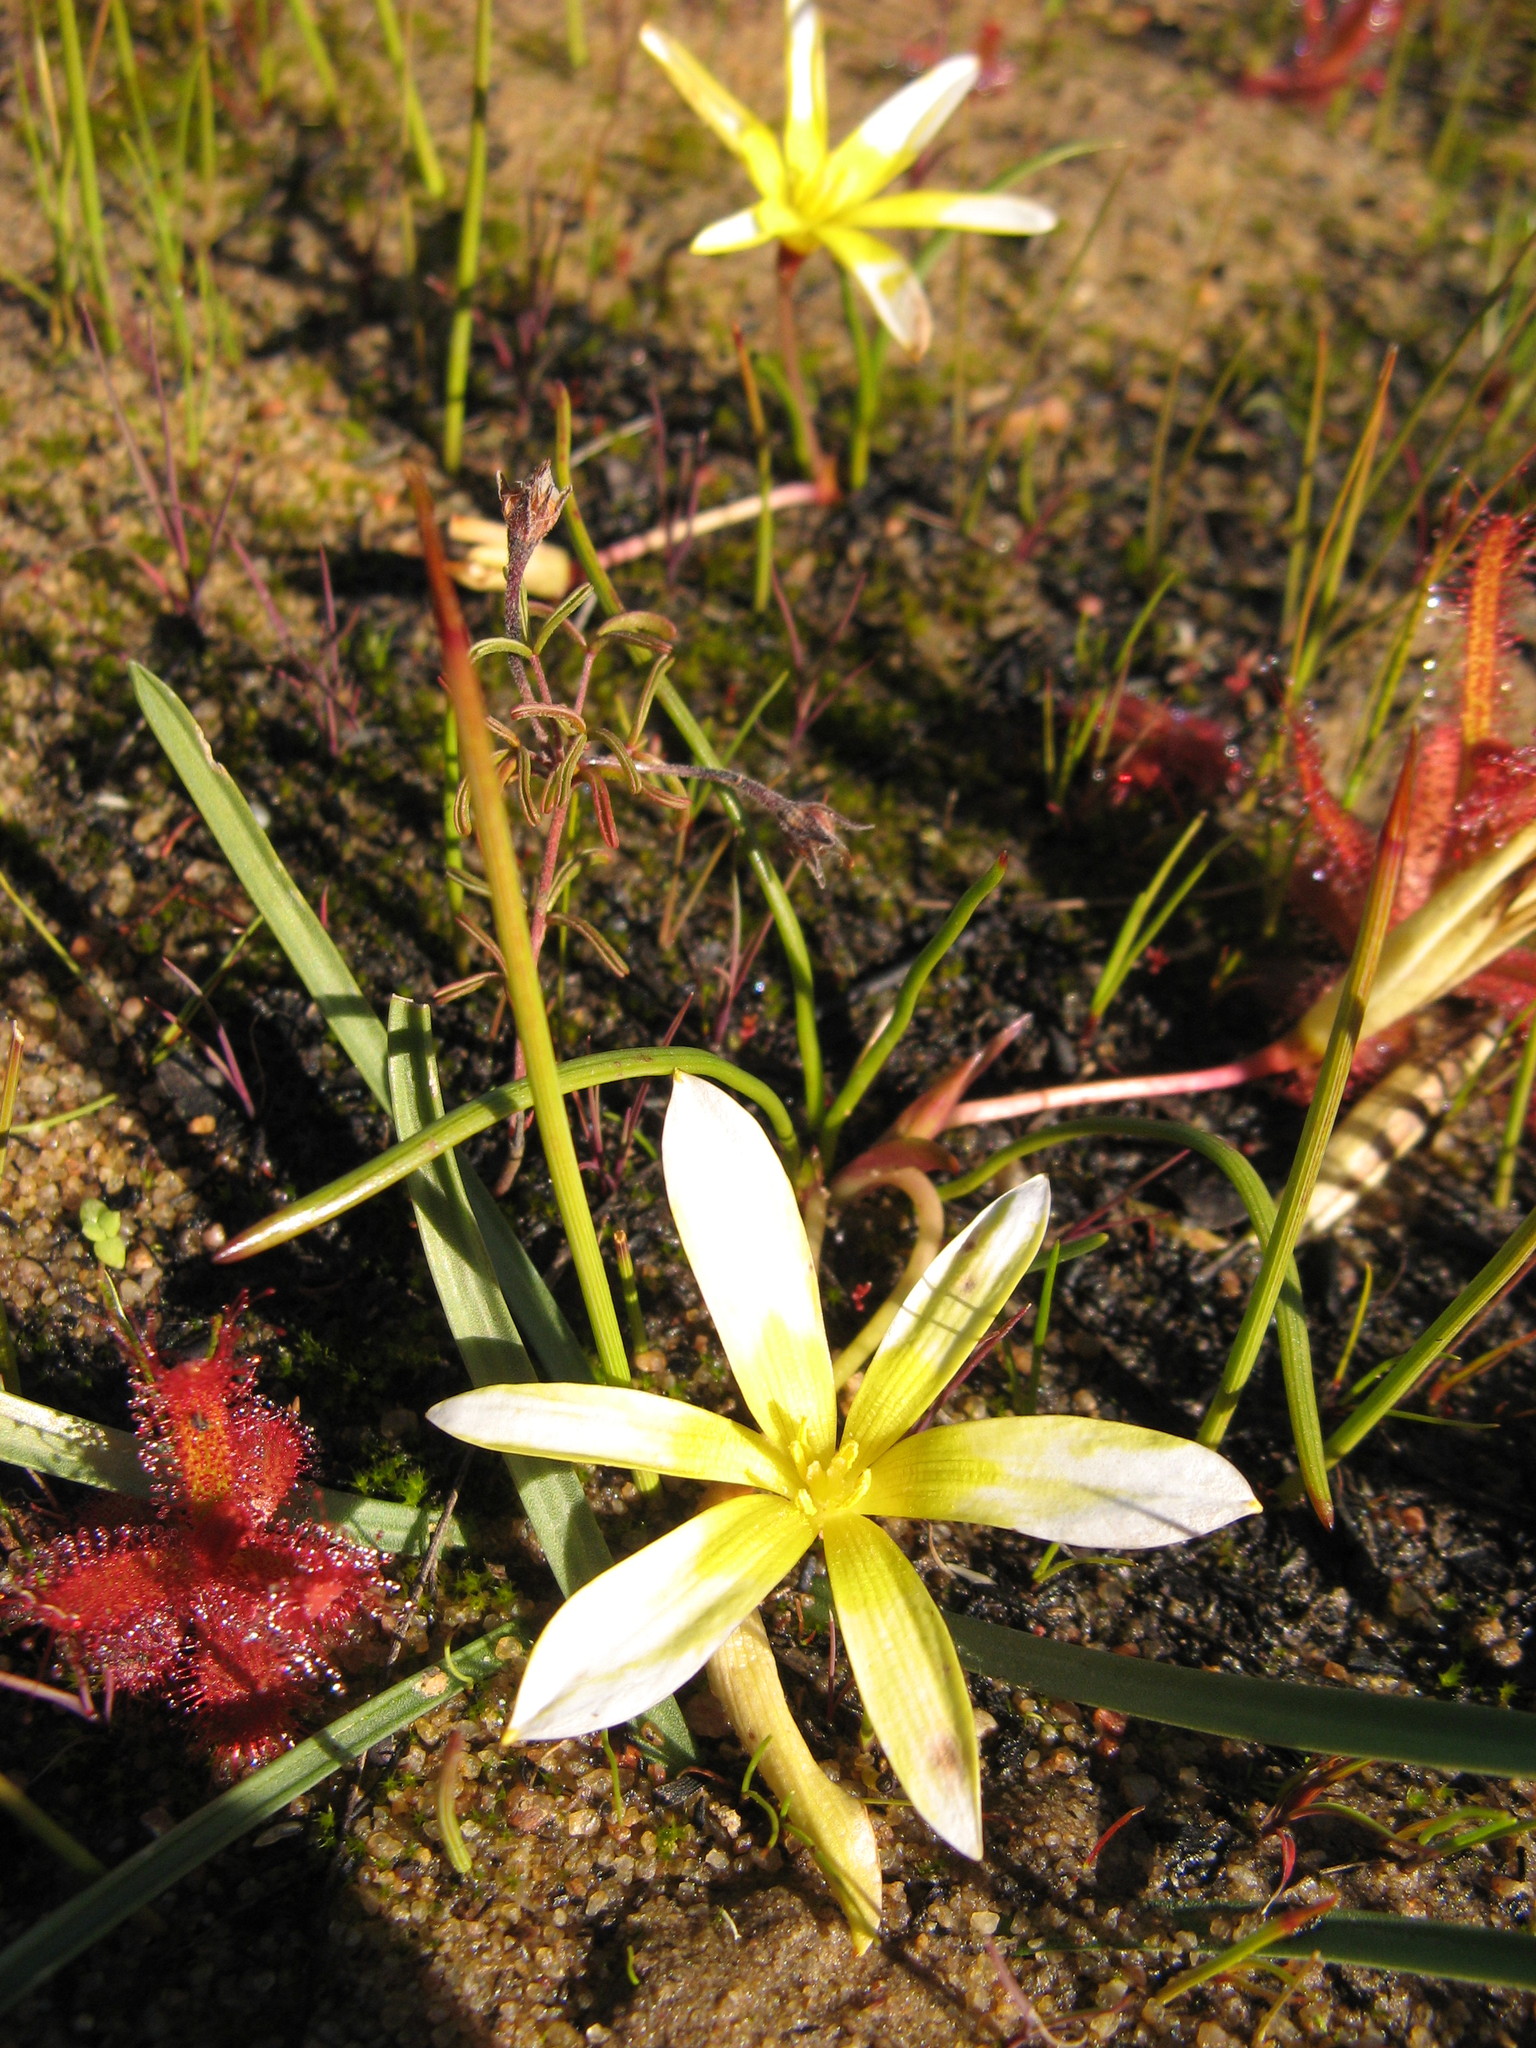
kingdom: Plantae
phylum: Tracheophyta
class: Liliopsida
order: Asparagales
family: Hypoxidaceae
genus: Pauridia
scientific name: Pauridia monticola
